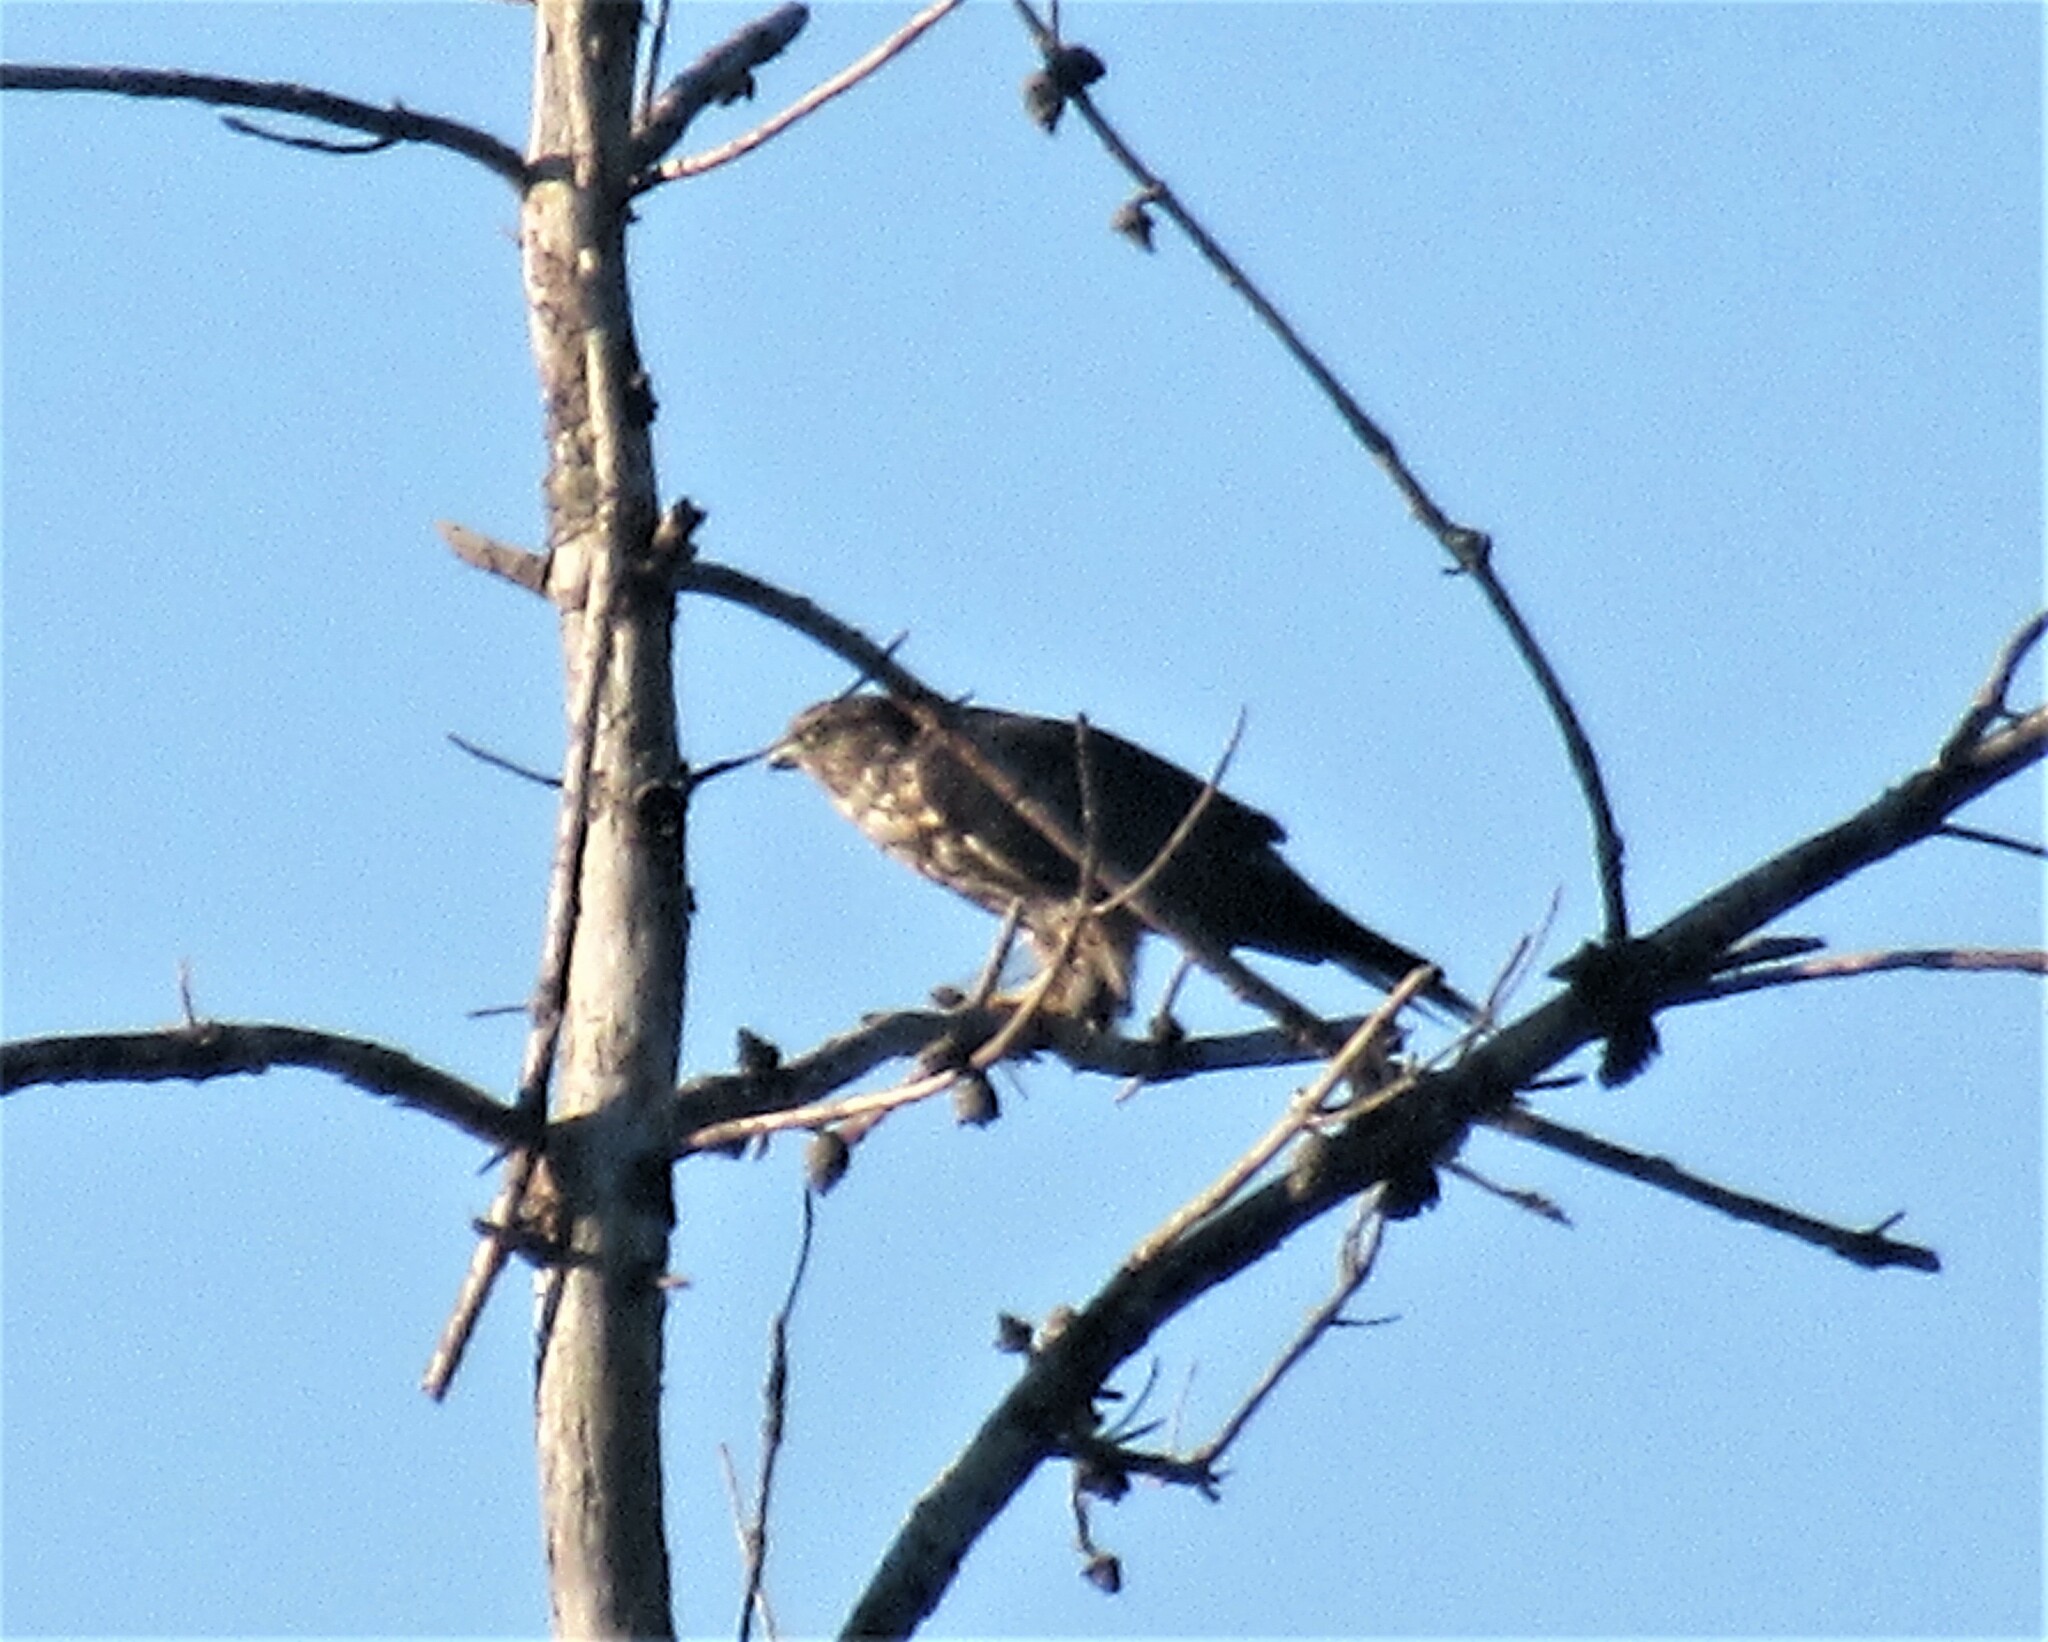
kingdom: Animalia
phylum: Chordata
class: Aves
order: Falconiformes
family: Falconidae
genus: Falco
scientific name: Falco columbarius
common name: Merlin
